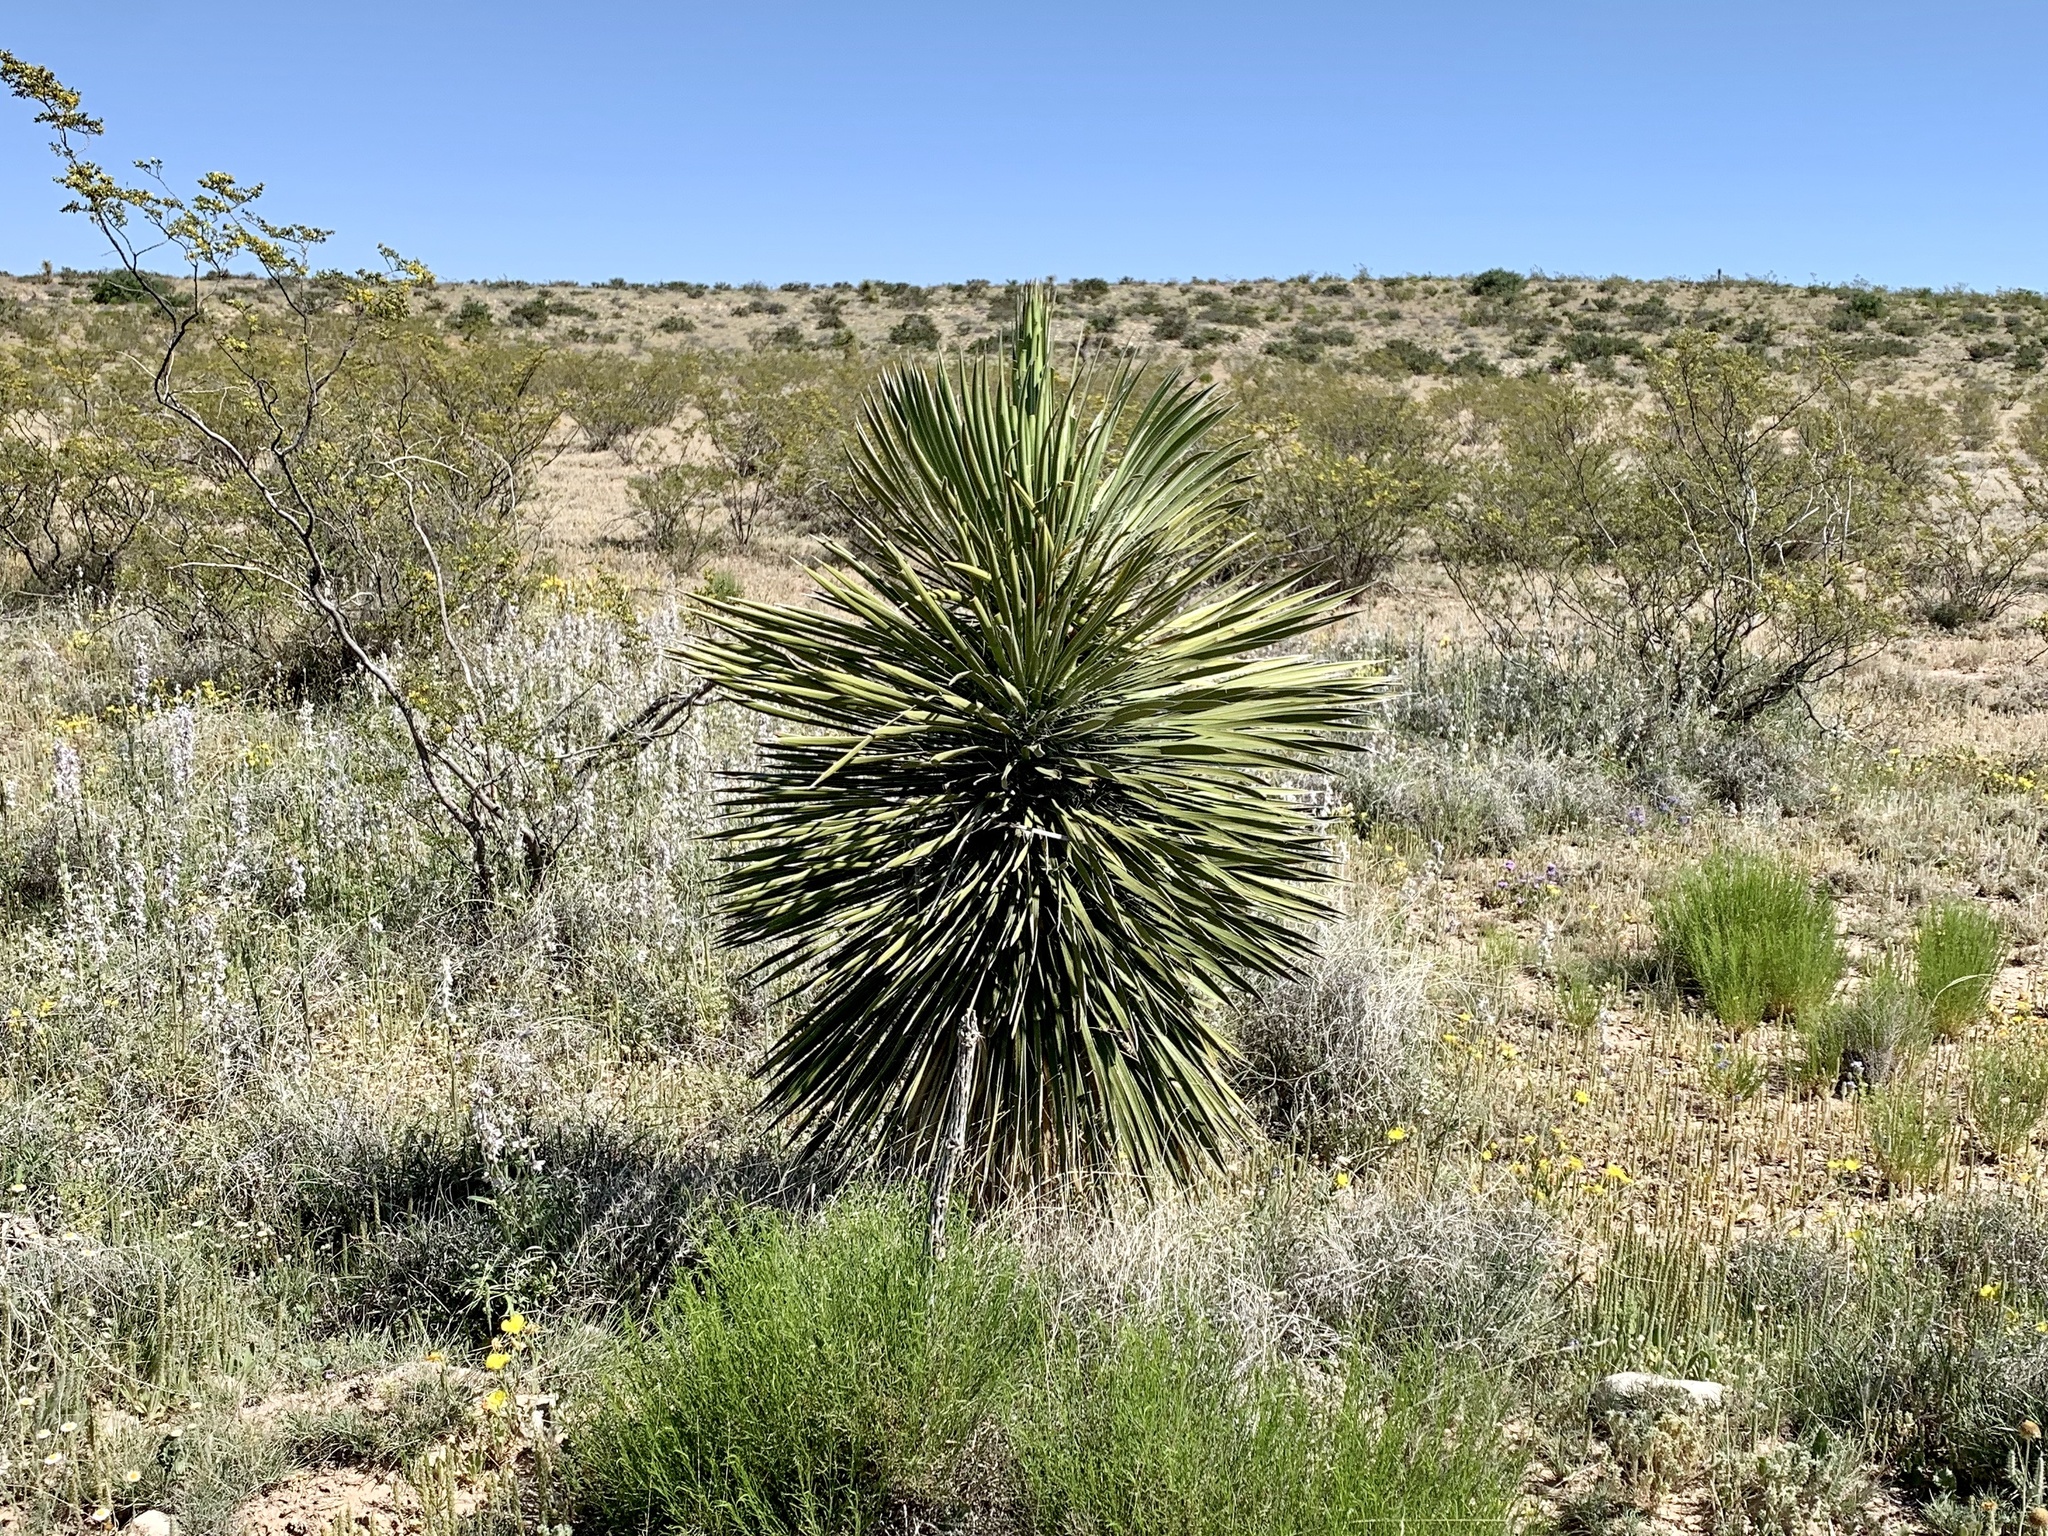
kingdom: Plantae
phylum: Tracheophyta
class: Liliopsida
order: Asparagales
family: Asparagaceae
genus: Yucca
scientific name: Yucca elata
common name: Palmella
